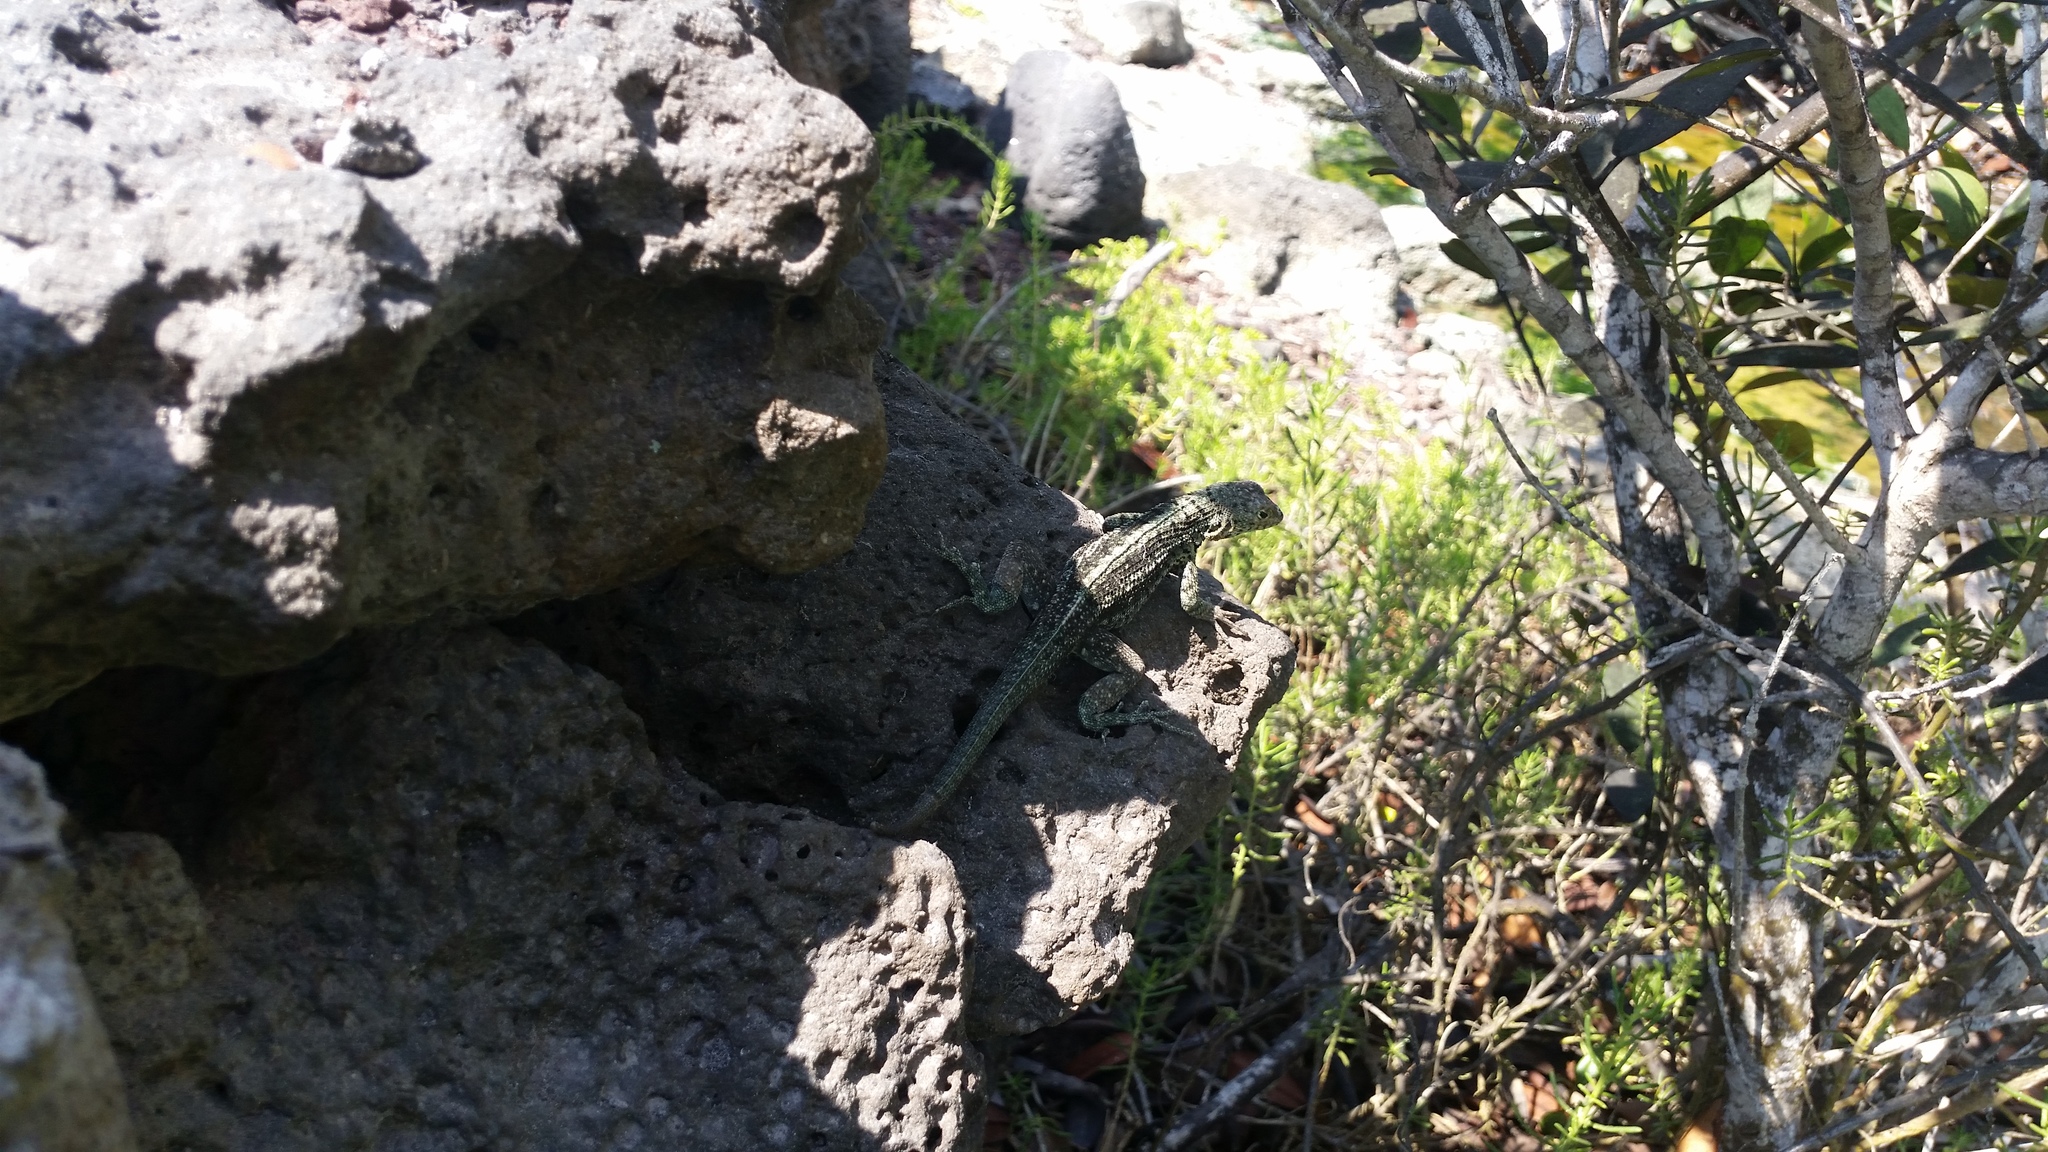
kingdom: Animalia
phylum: Chordata
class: Squamata
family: Tropiduridae
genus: Microlophus
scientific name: Microlophus
